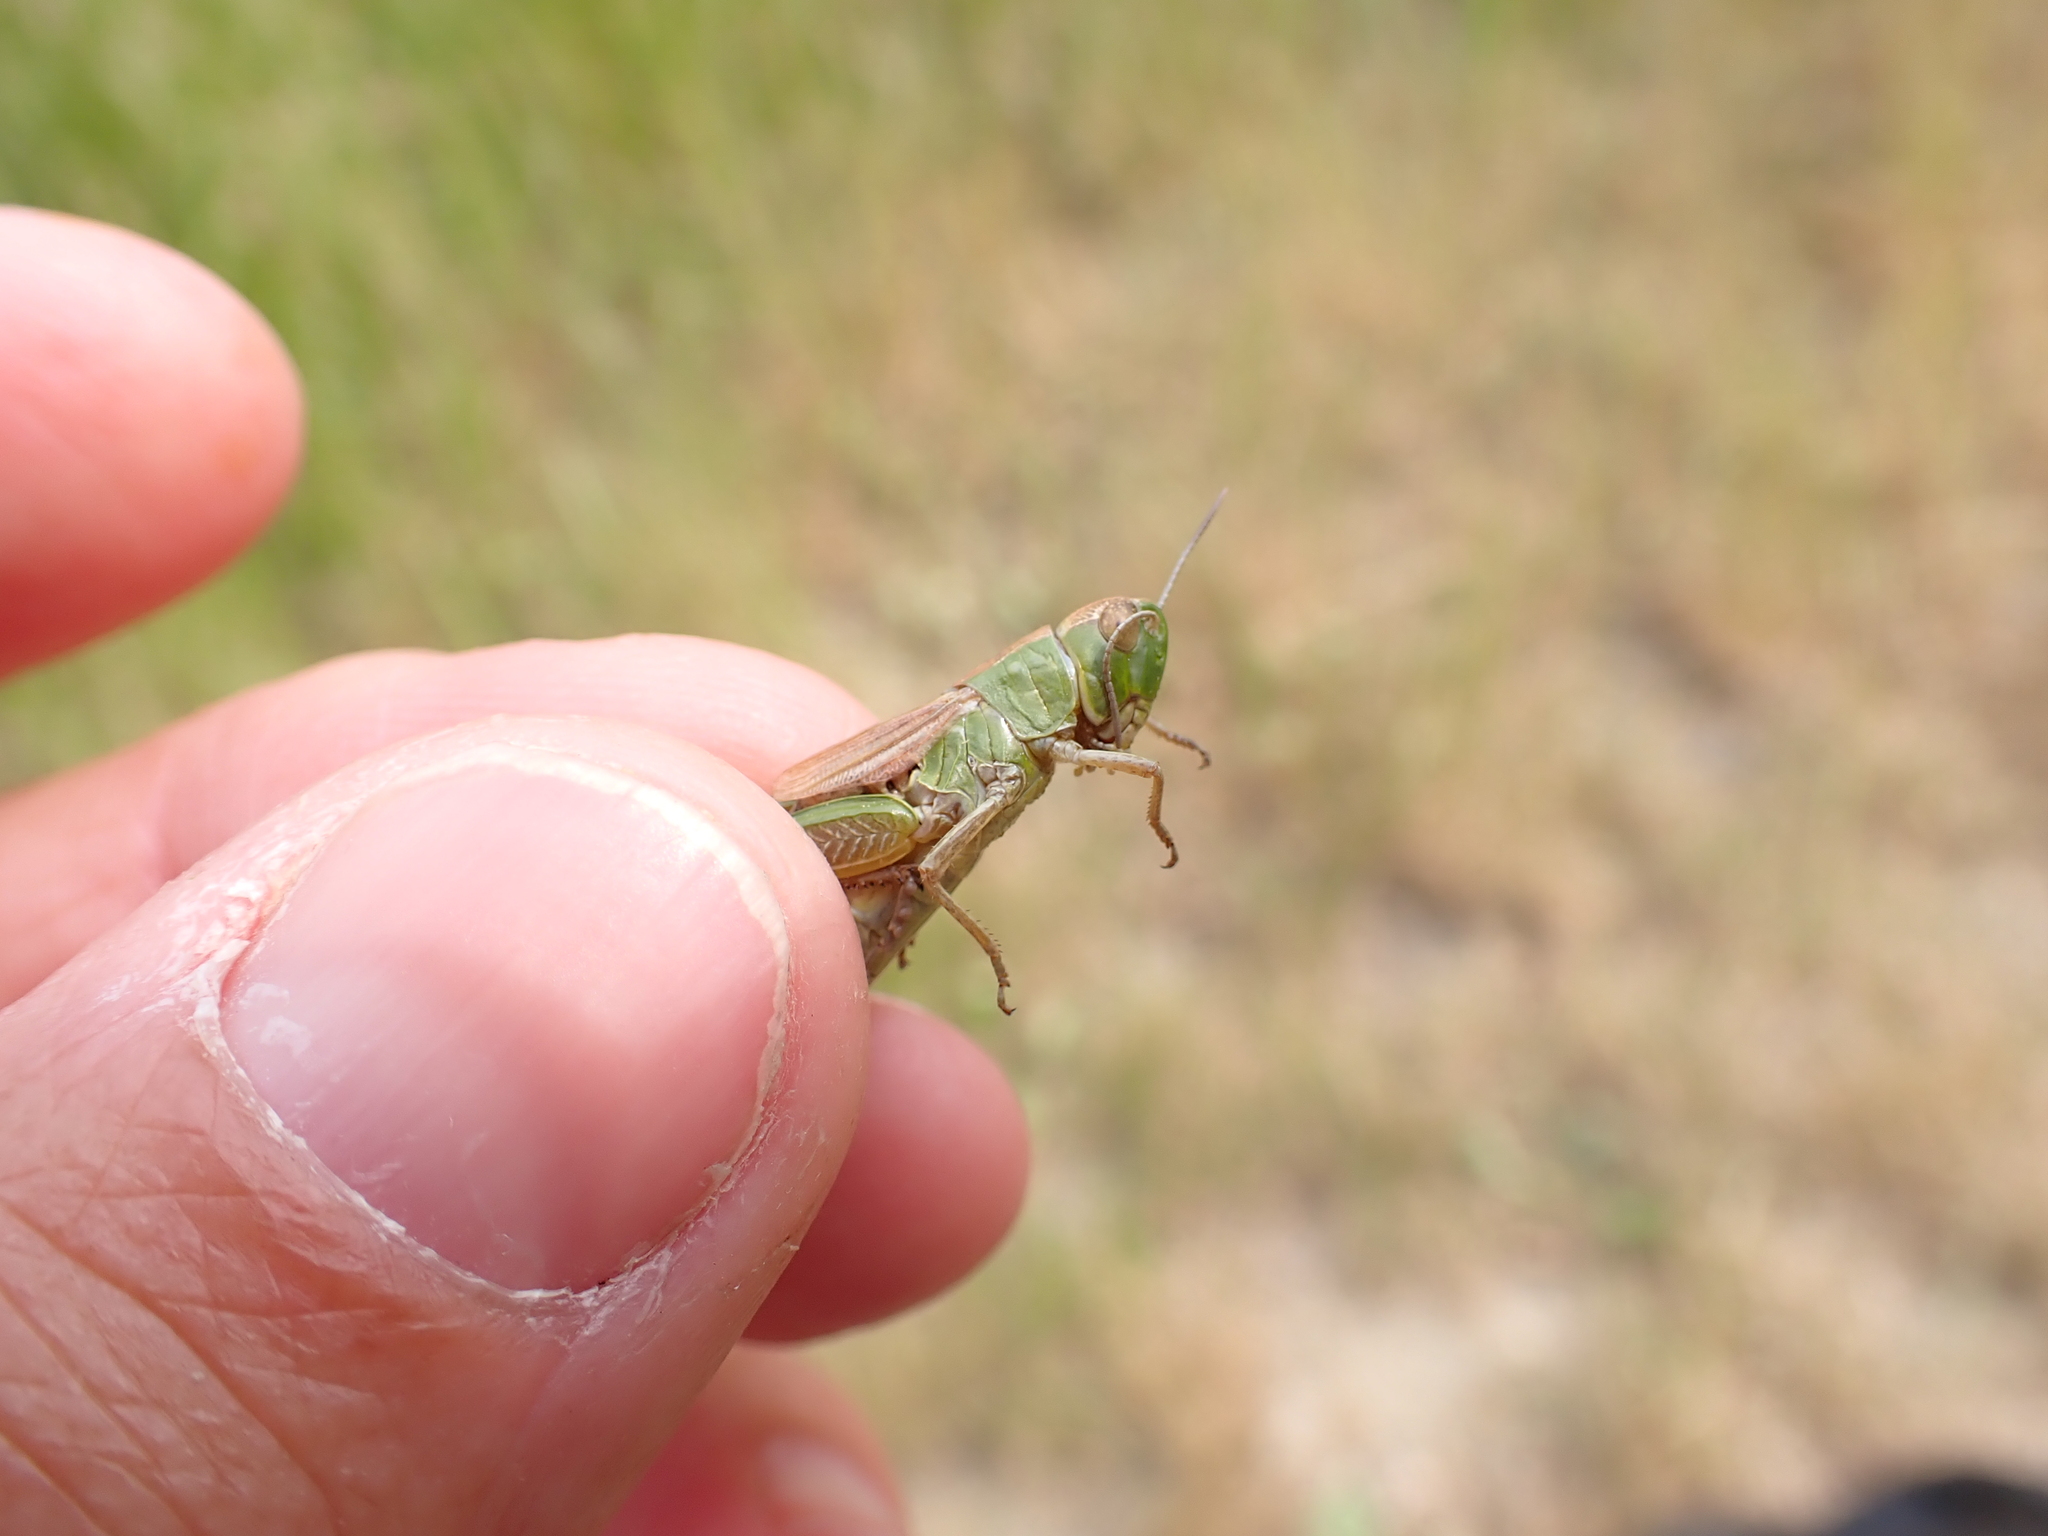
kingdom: Animalia
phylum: Arthropoda
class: Insecta
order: Orthoptera
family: Acrididae
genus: Pseudochorthippus
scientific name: Pseudochorthippus parallelus
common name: Meadow grasshopper
